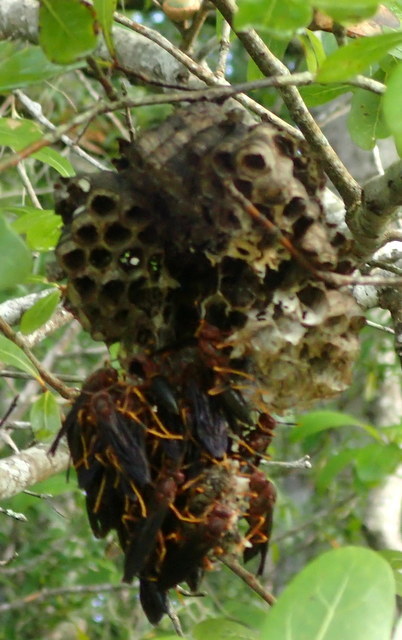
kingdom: Animalia
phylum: Arthropoda
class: Insecta
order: Hymenoptera
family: Eumenidae
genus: Polistes
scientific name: Polistes annularis
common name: Ringed paper wasp
